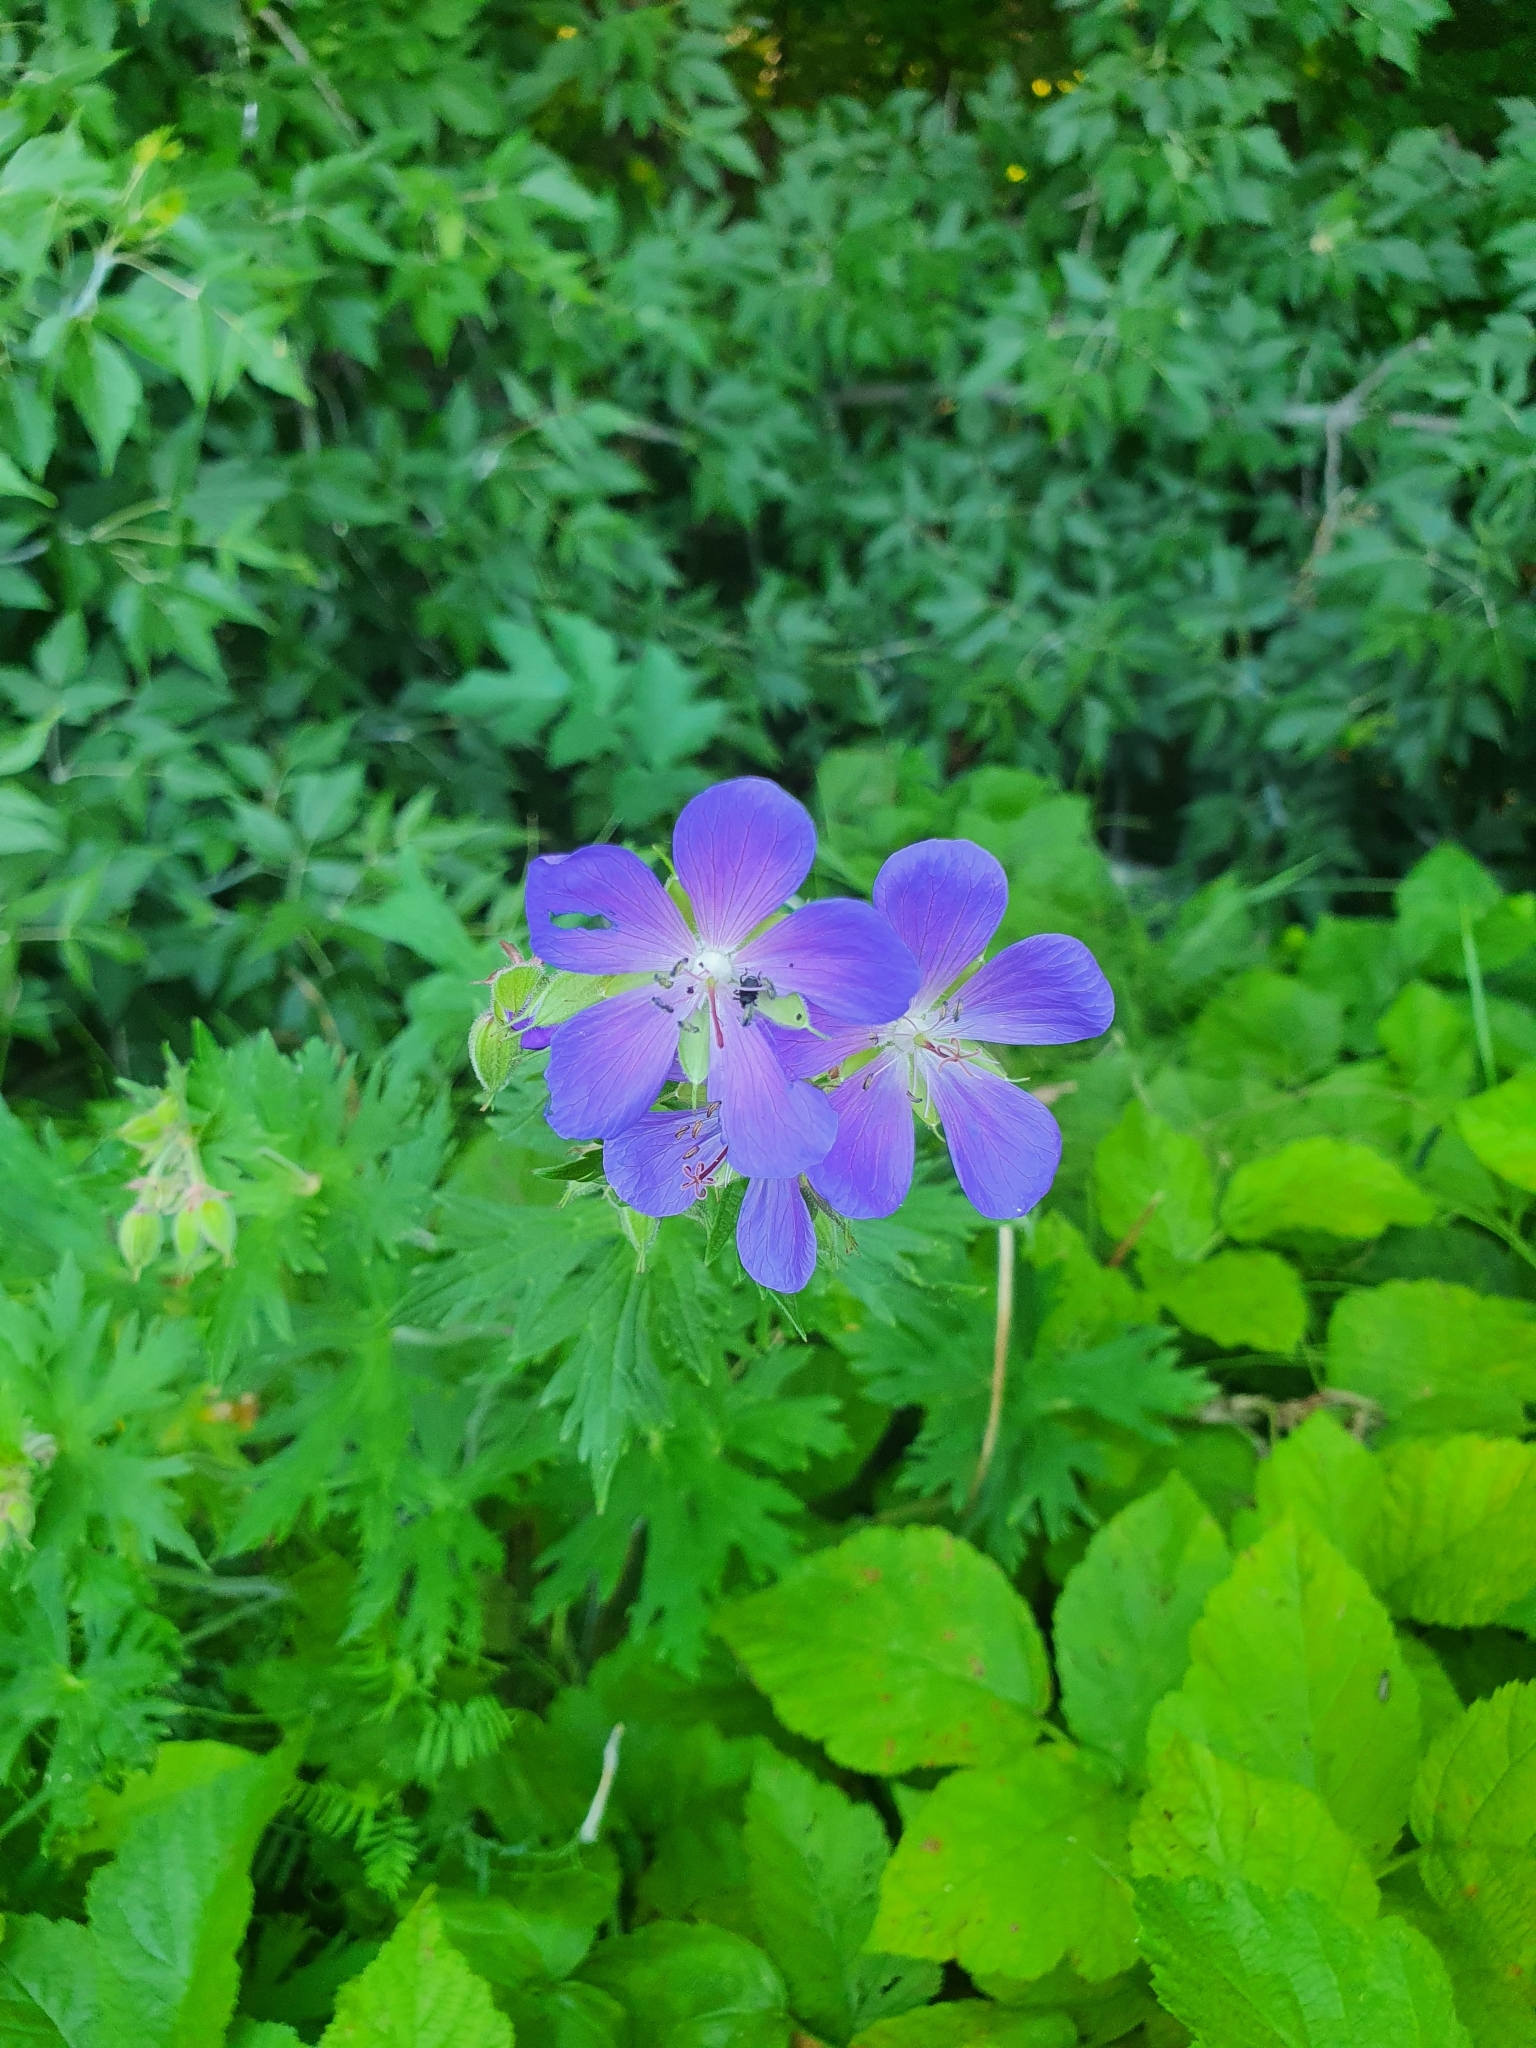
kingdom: Plantae
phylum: Tracheophyta
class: Magnoliopsida
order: Geraniales
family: Geraniaceae
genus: Geranium
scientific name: Geranium pratense
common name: Meadow crane's-bill
